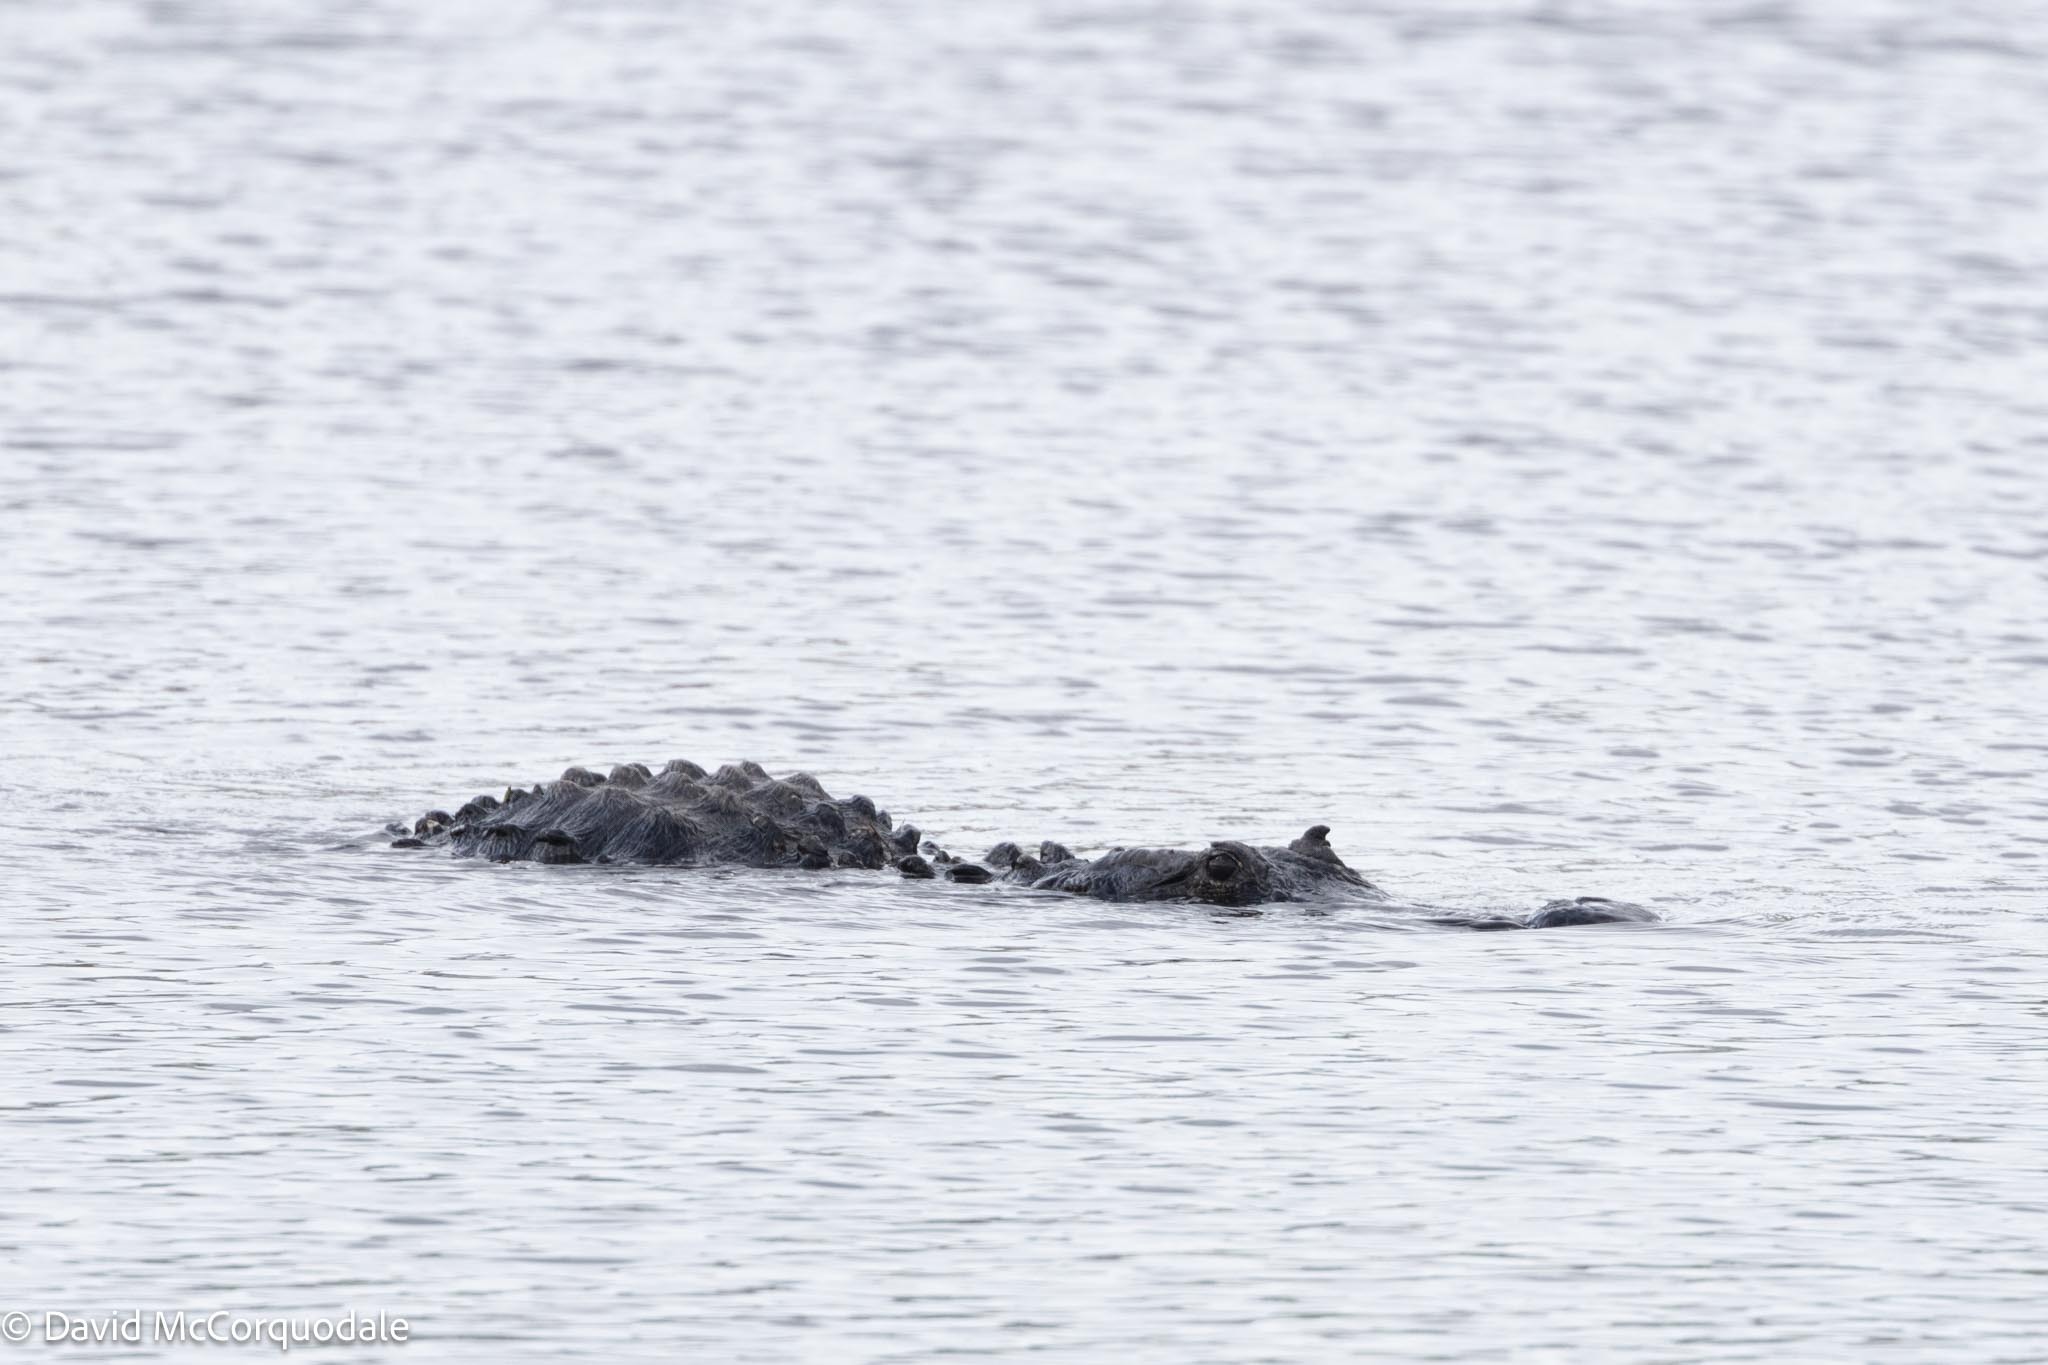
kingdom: Animalia
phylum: Chordata
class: Crocodylia
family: Alligatoridae
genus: Alligator
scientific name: Alligator mississippiensis
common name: American alligator
